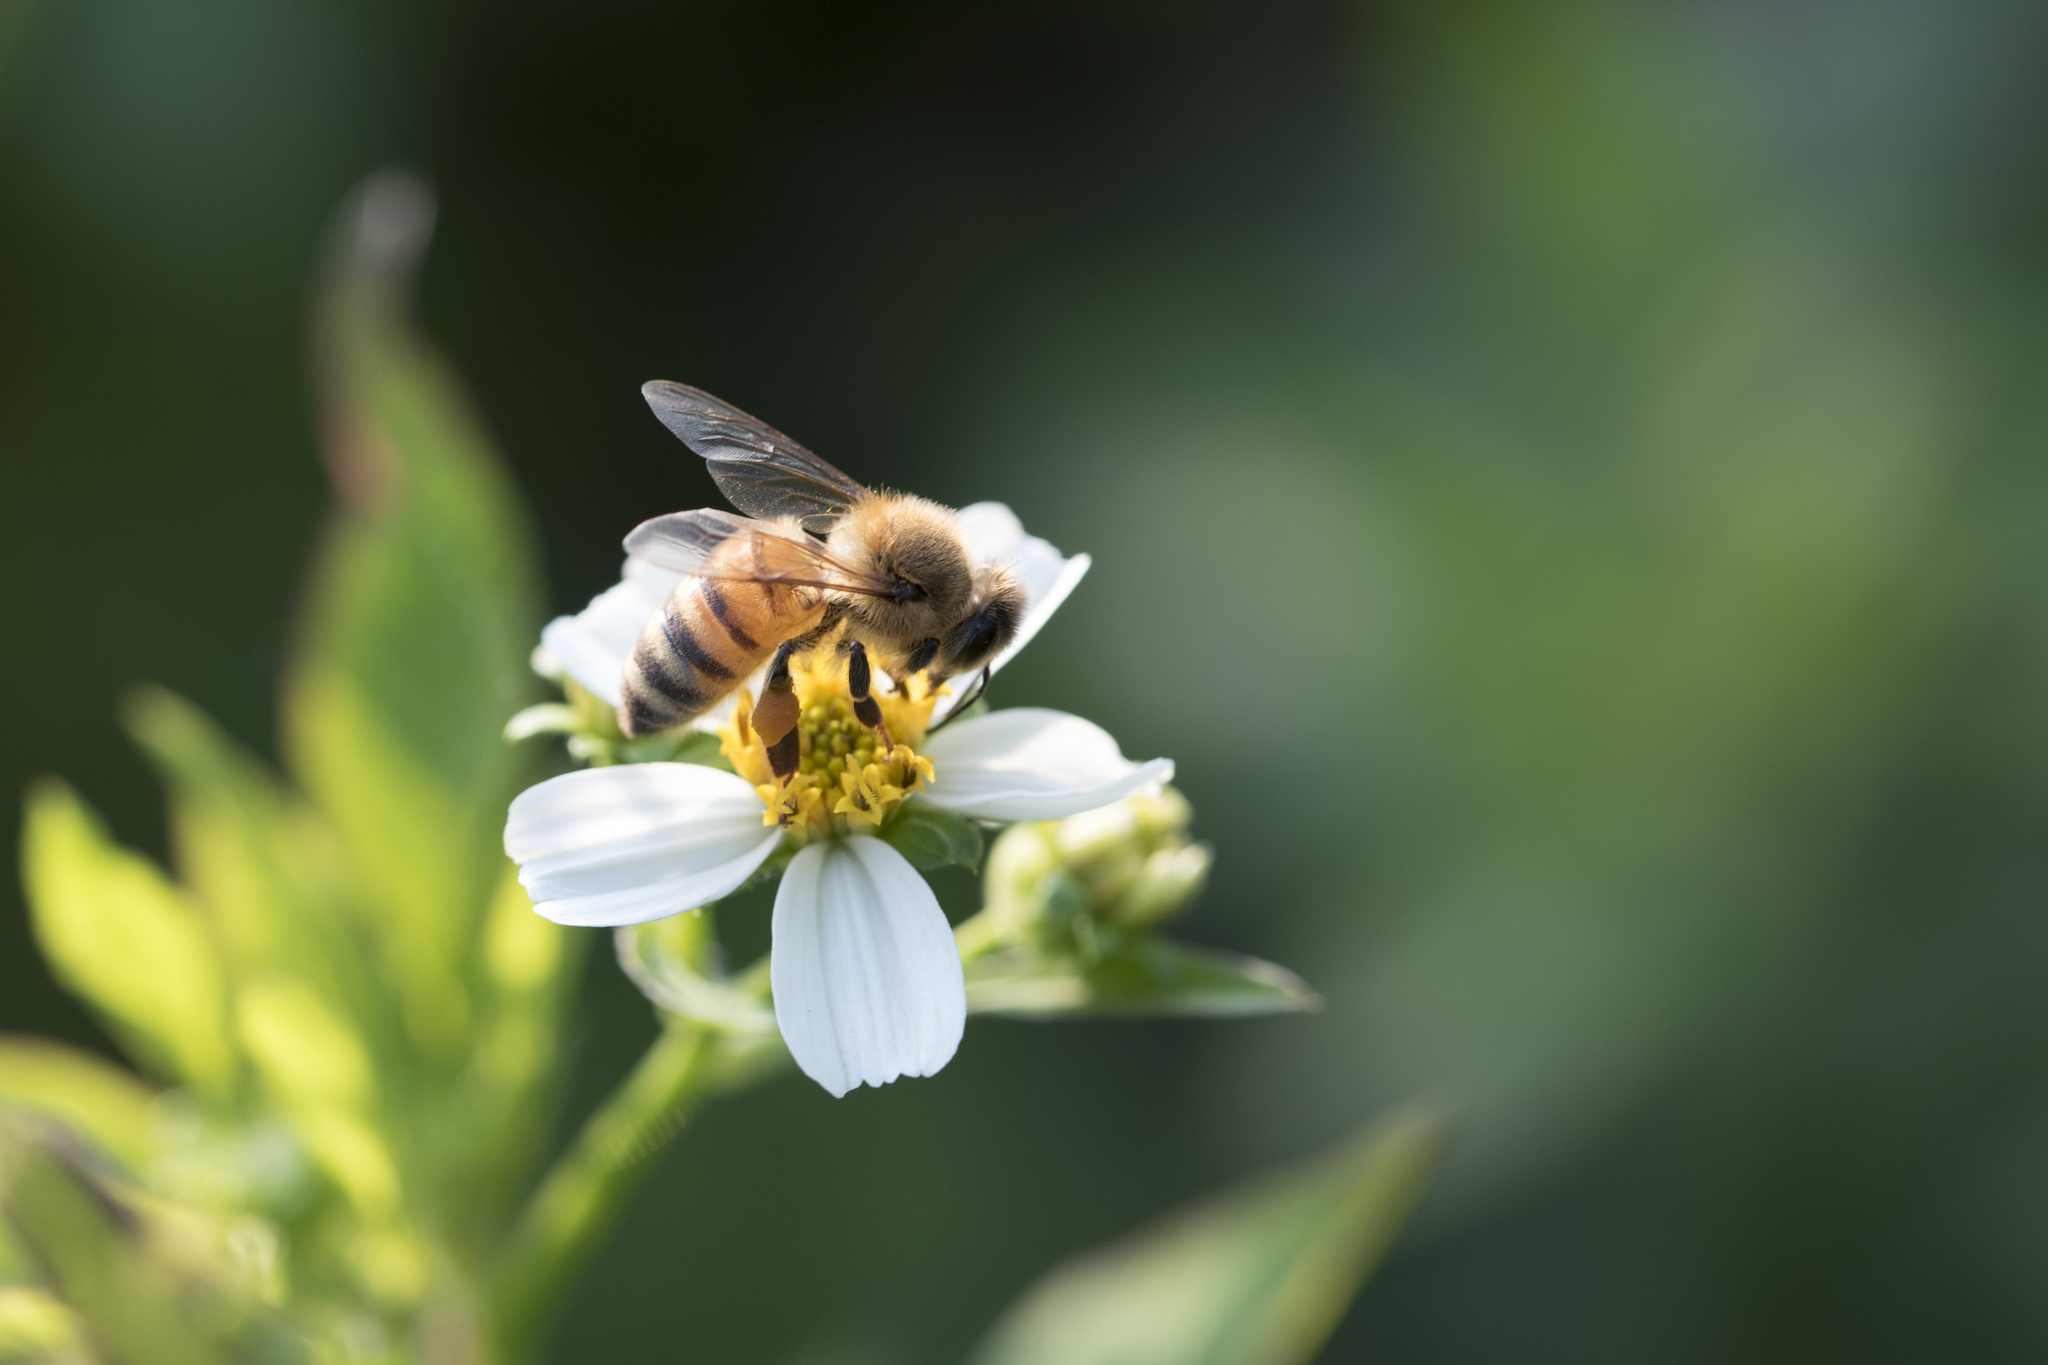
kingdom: Animalia
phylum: Arthropoda
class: Insecta
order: Hymenoptera
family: Apidae
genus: Apis
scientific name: Apis mellifera
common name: Honey bee
